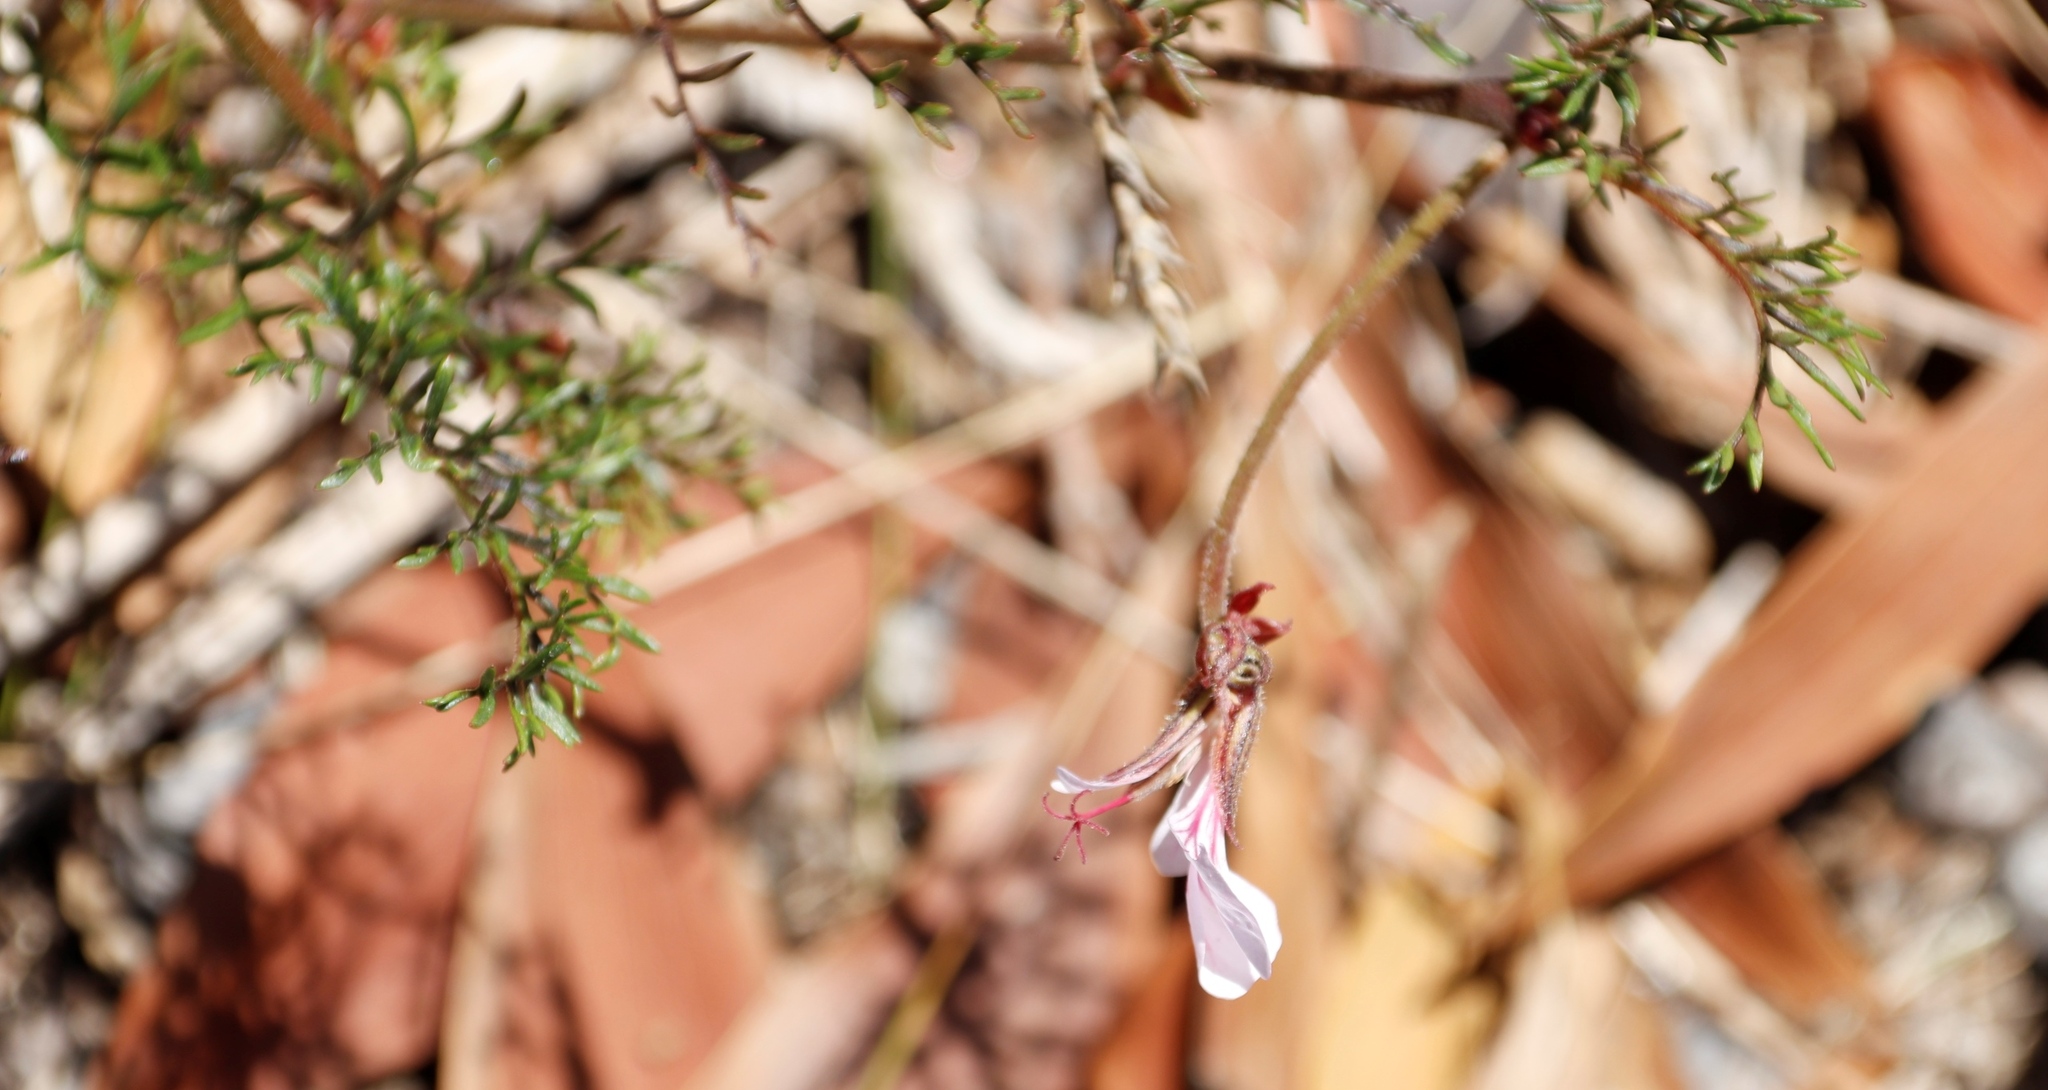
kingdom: Plantae
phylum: Tracheophyta
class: Magnoliopsida
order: Geraniales
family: Geraniaceae
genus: Pelargonium
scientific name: Pelargonium myrrhifolium
